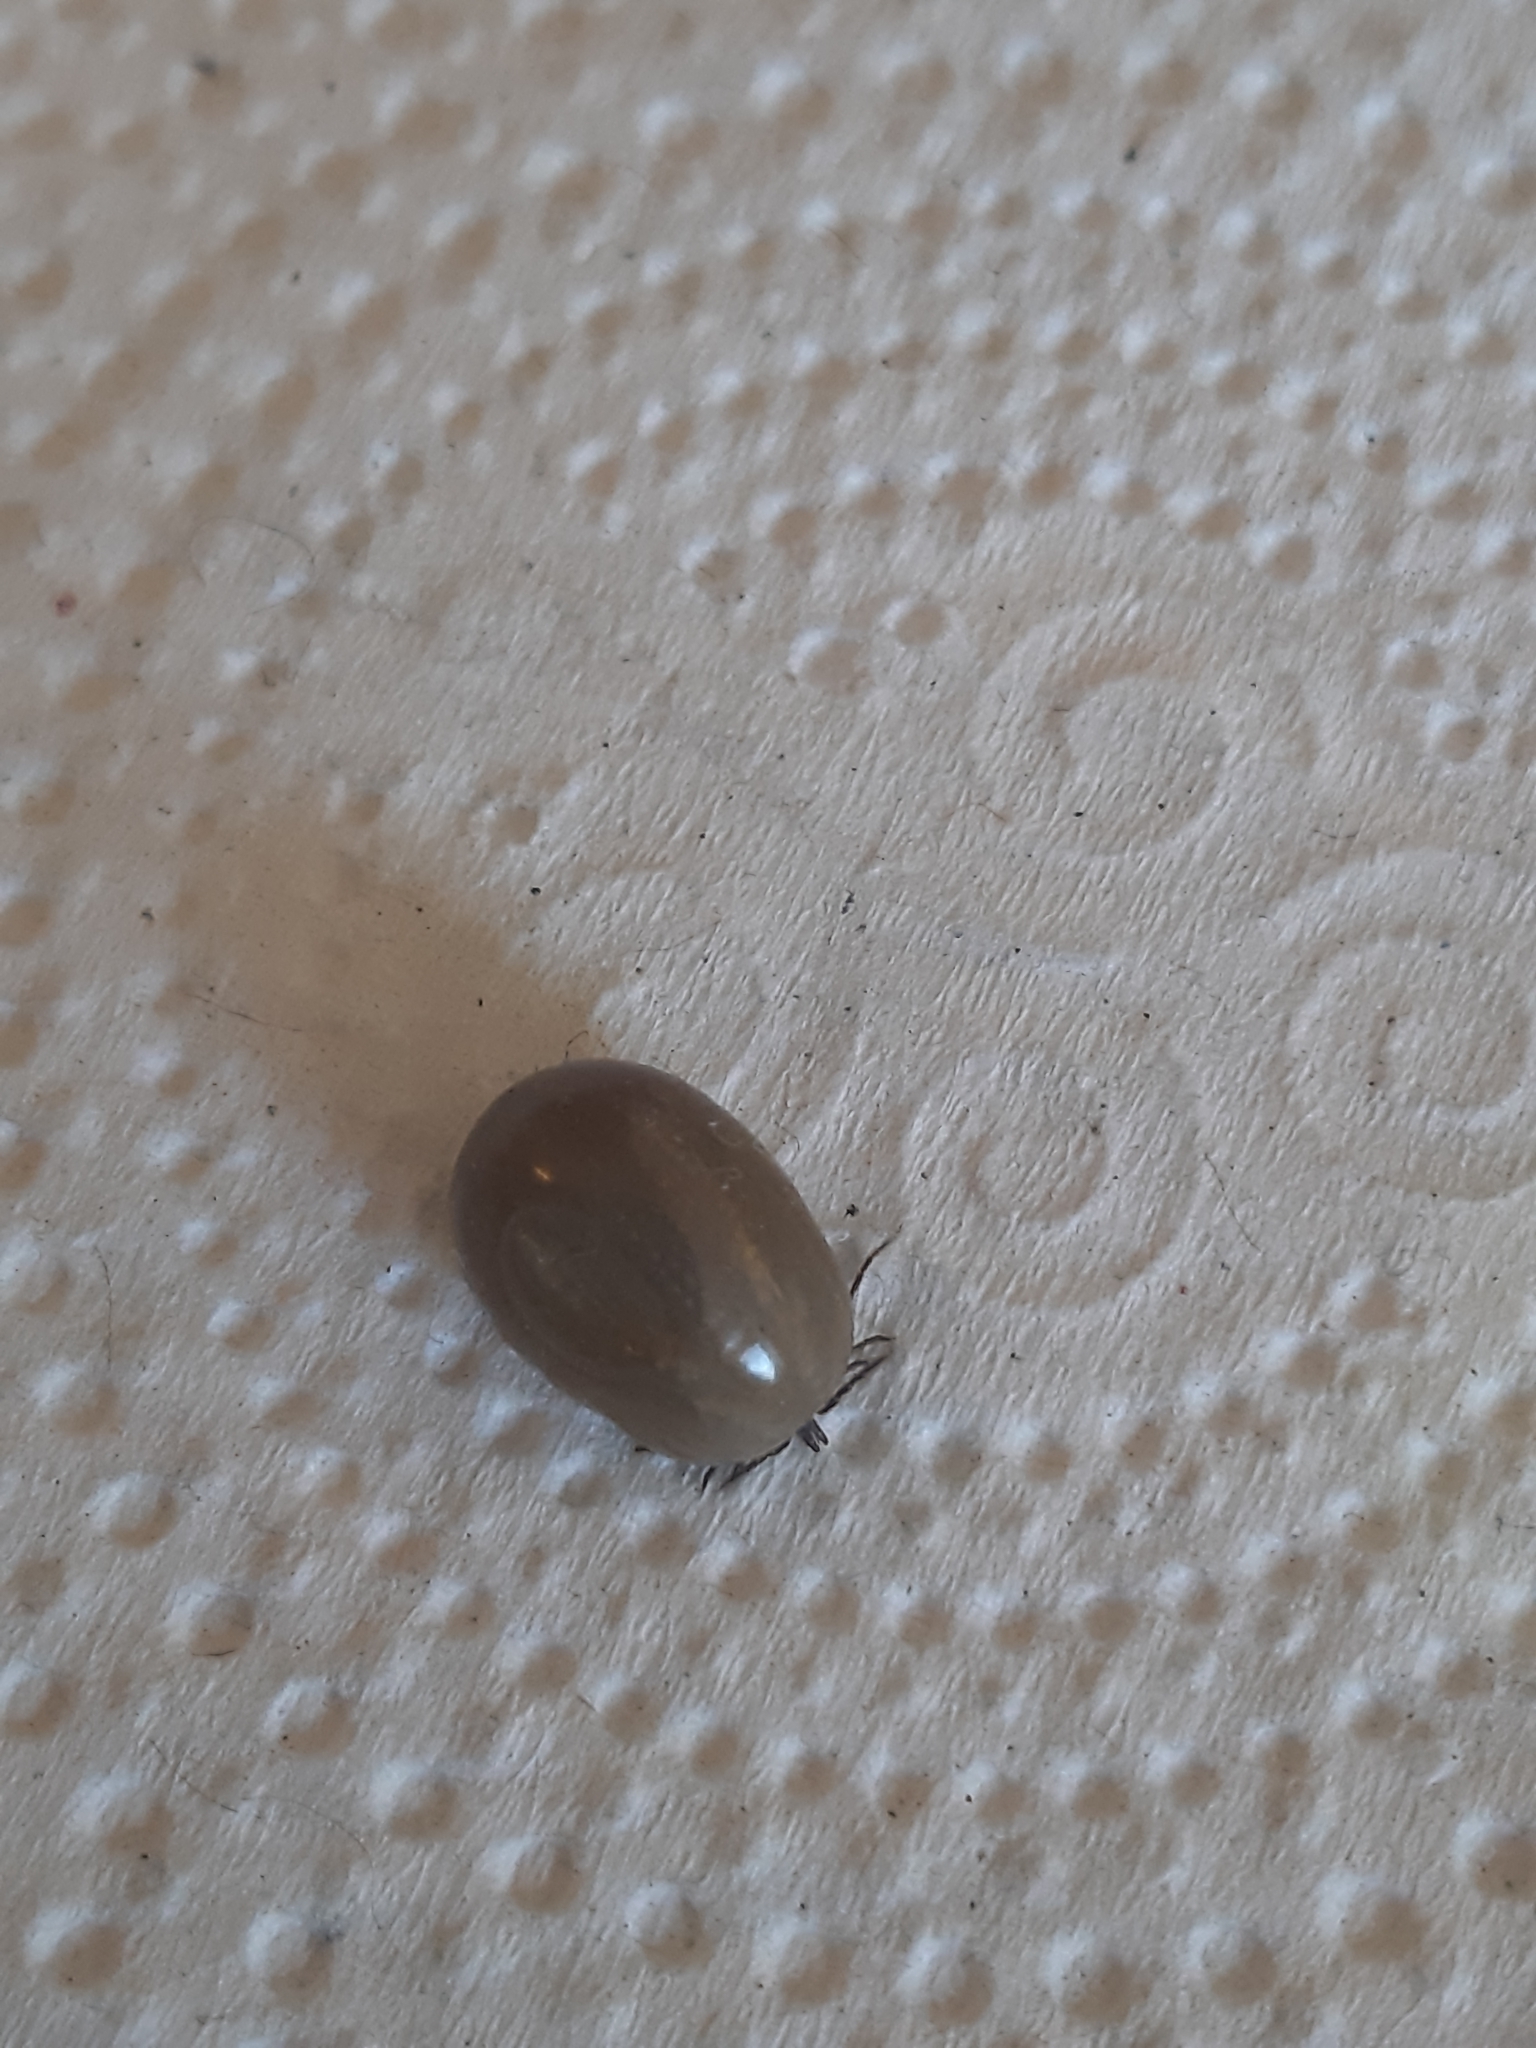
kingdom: Animalia
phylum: Arthropoda
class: Arachnida
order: Ixodida
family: Ixodidae
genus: Ixodes
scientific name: Ixodes ricinus
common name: Castor bean tick
